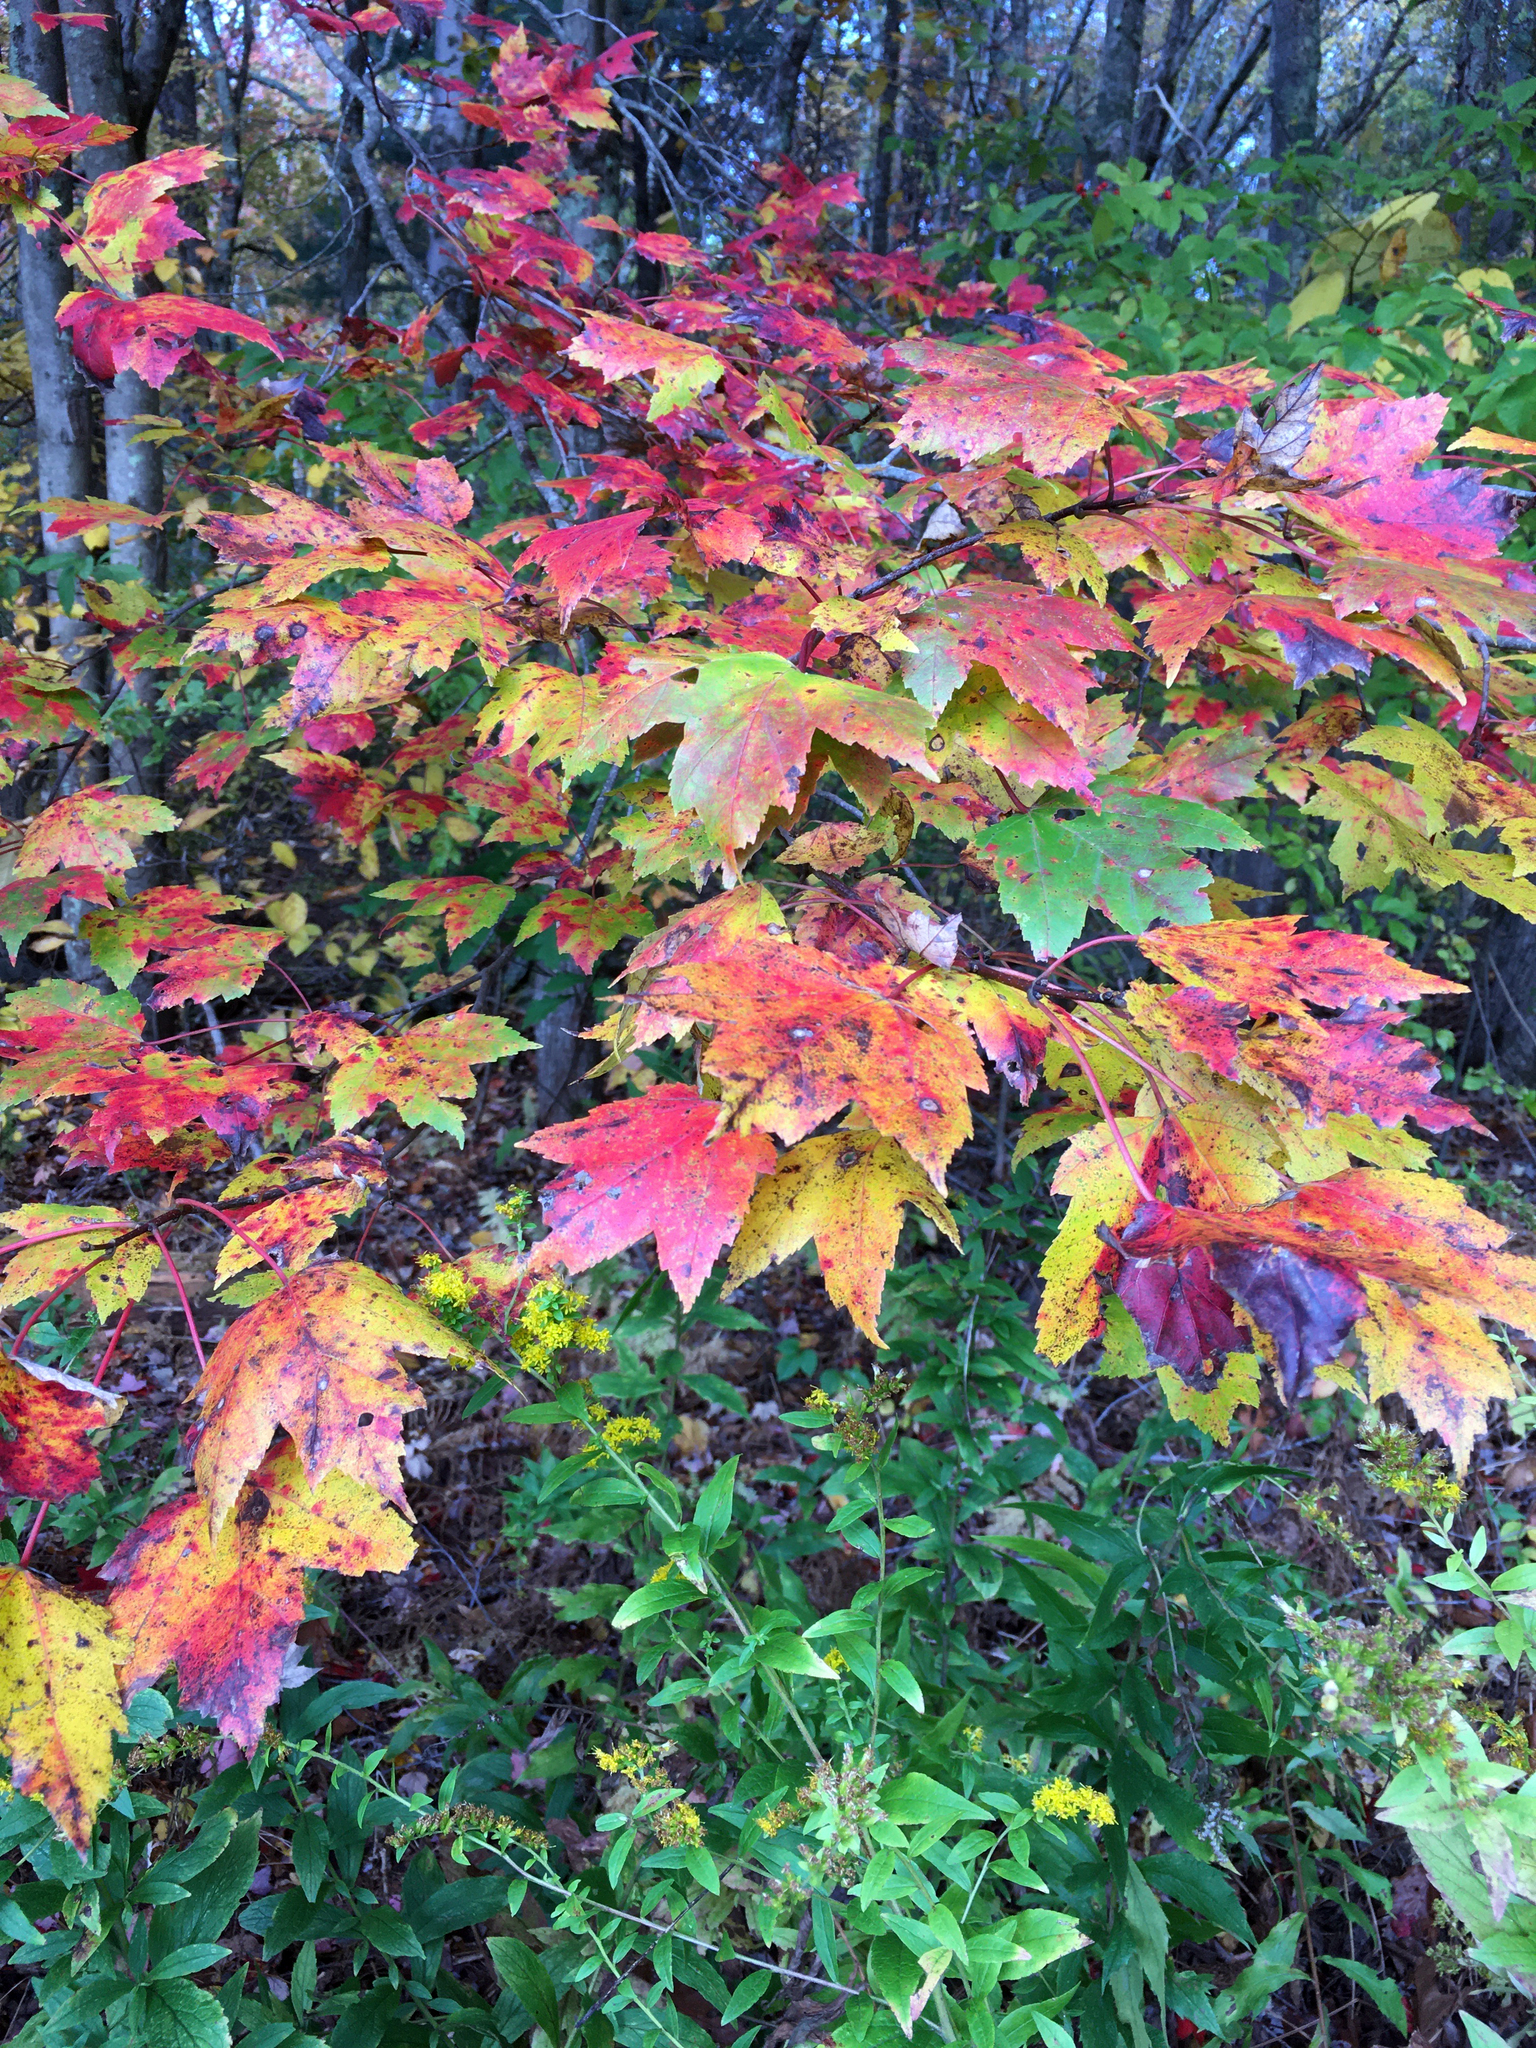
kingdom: Plantae
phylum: Tracheophyta
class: Magnoliopsida
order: Sapindales
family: Sapindaceae
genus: Acer
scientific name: Acer rubrum
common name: Red maple
